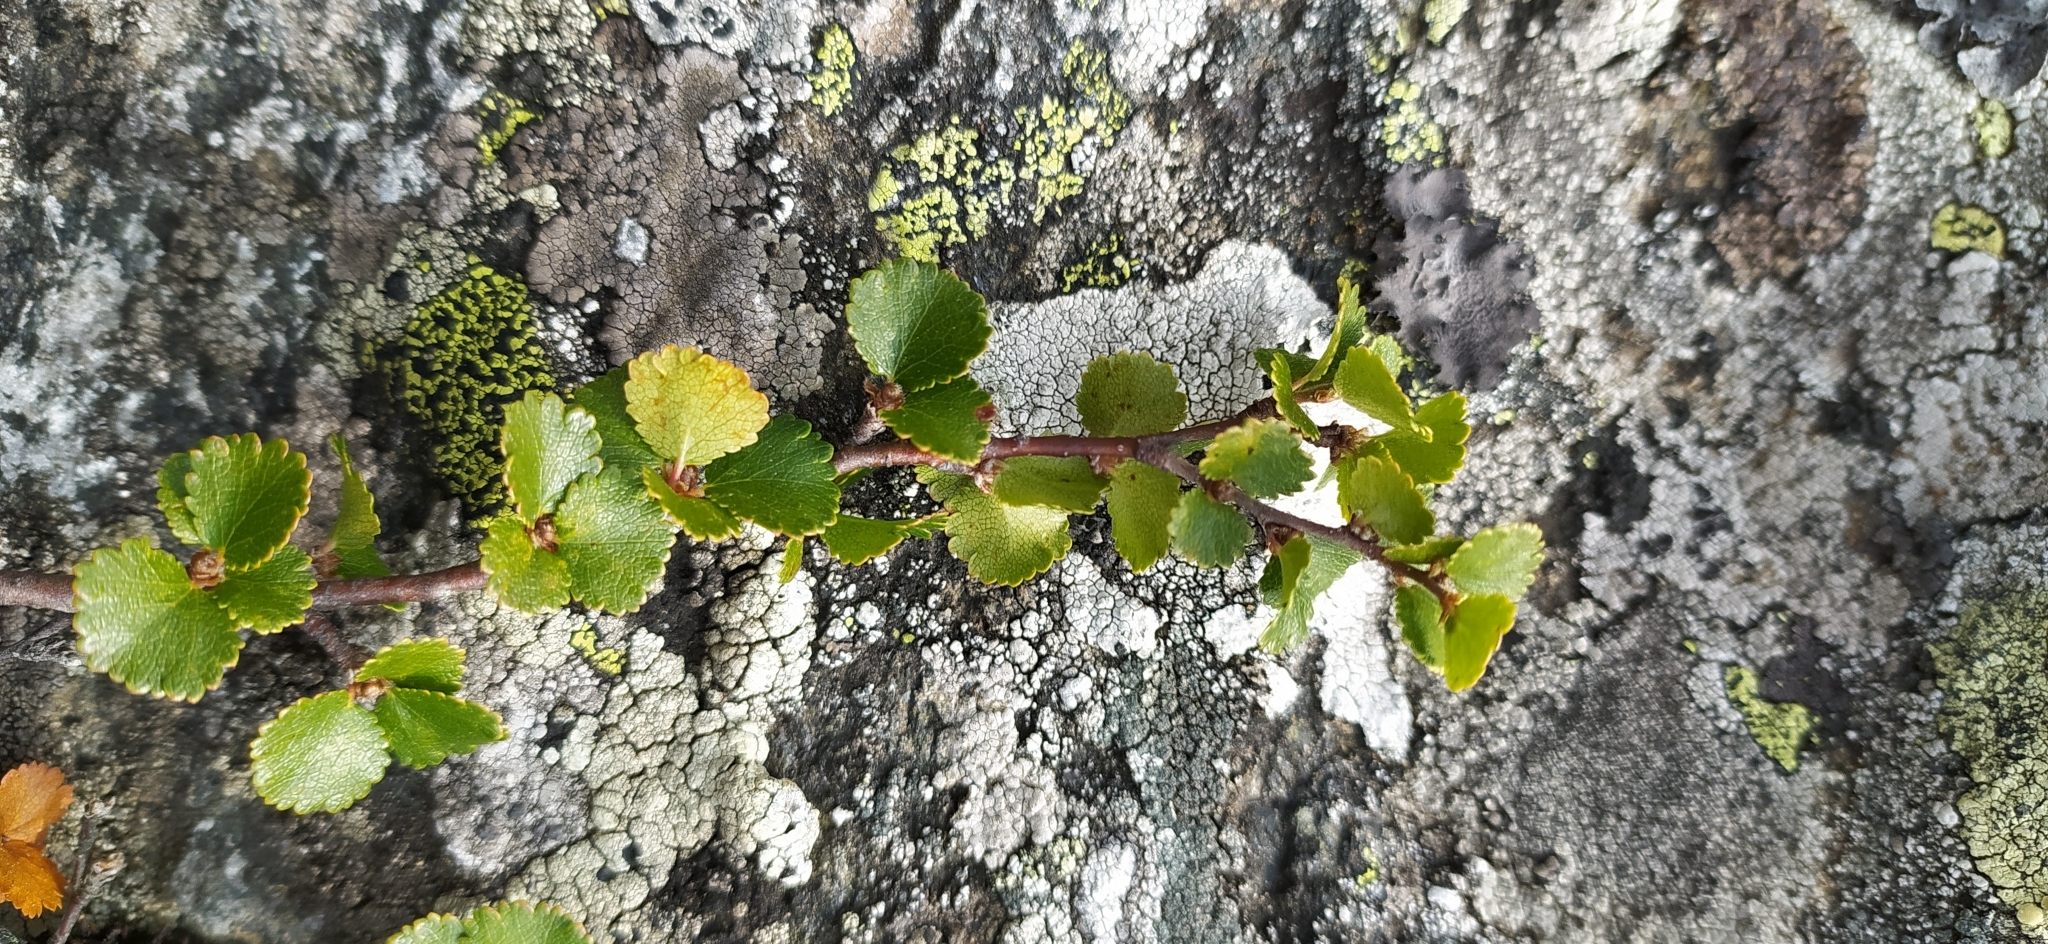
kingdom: Plantae
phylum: Tracheophyta
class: Magnoliopsida
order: Fagales
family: Betulaceae
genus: Betula
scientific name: Betula nana
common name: Arctic dwarf birch
